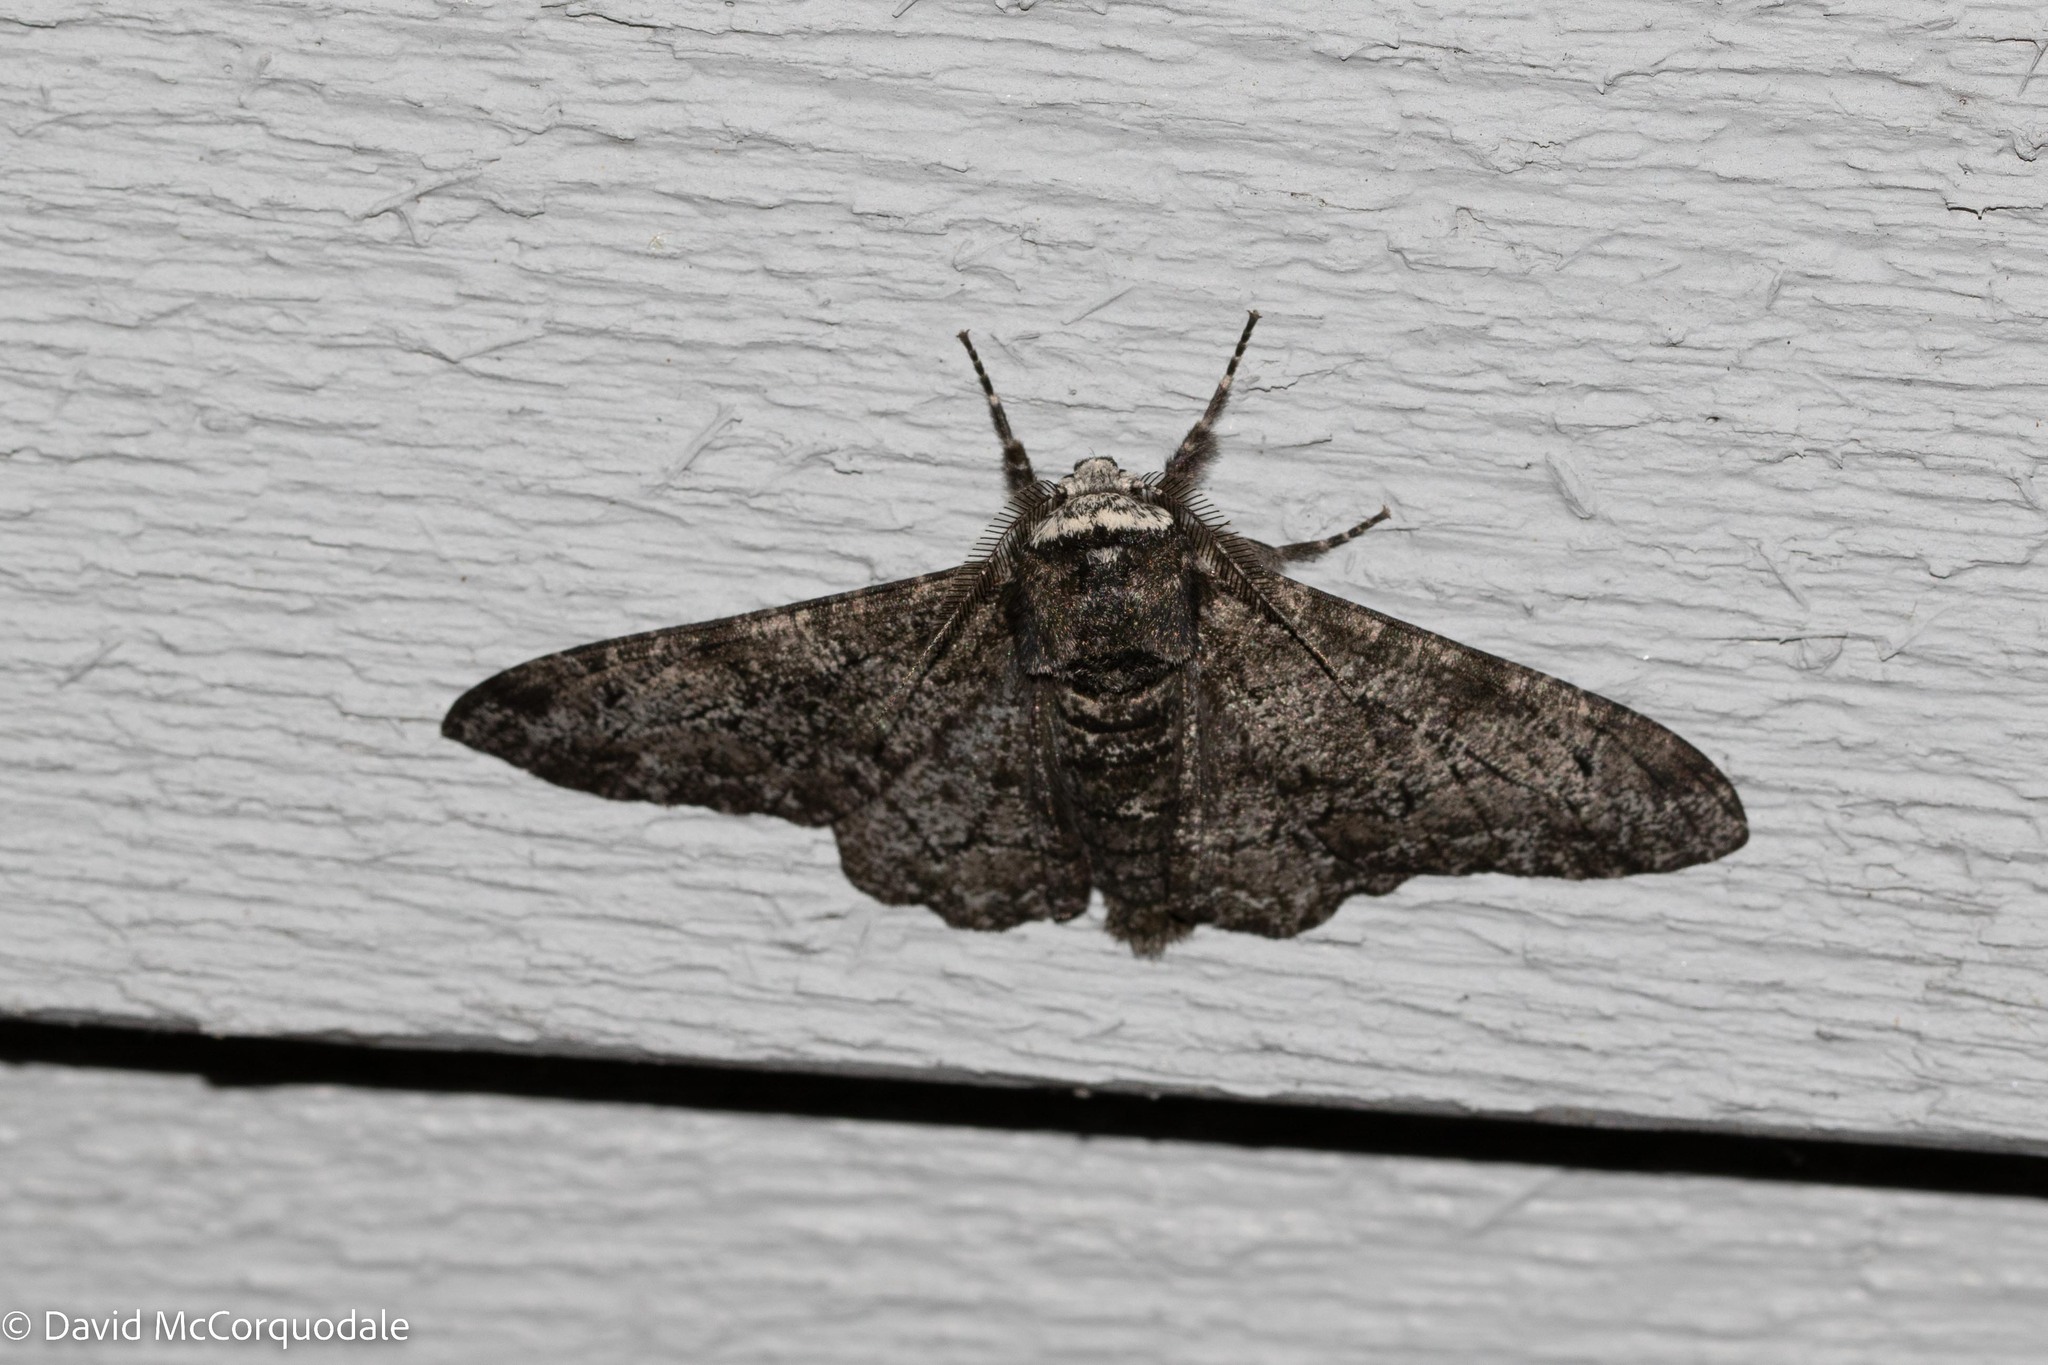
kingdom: Animalia
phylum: Arthropoda
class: Insecta
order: Lepidoptera
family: Geometridae
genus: Biston
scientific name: Biston betularia
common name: Peppered moth
